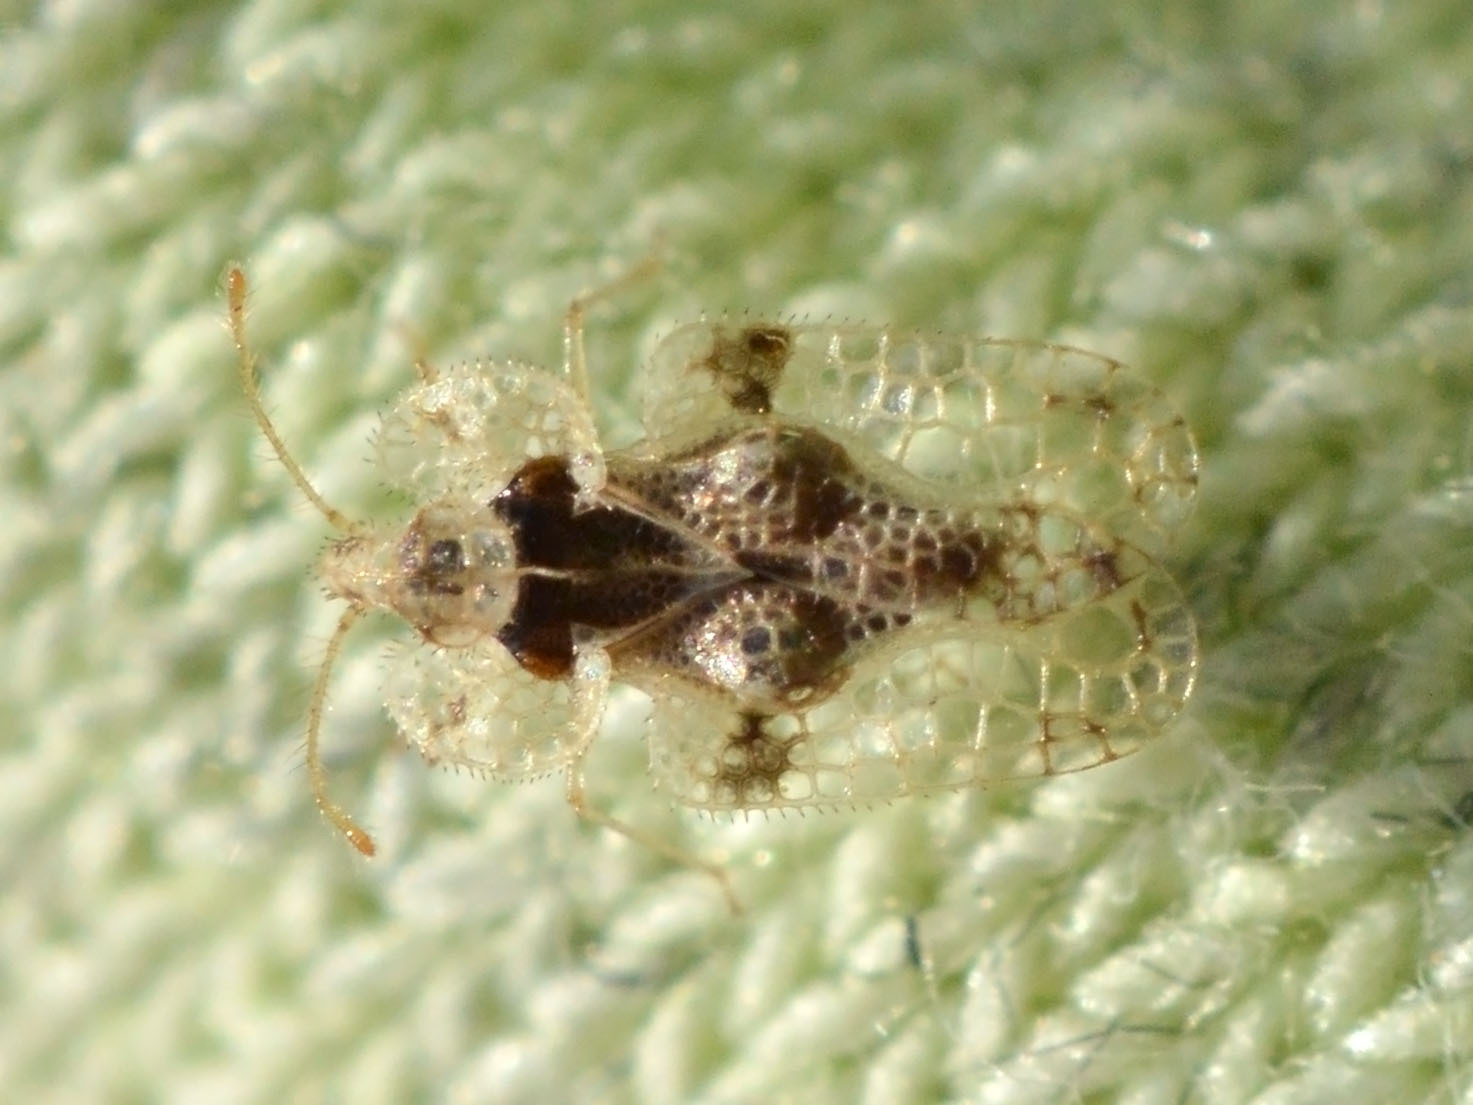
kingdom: Animalia
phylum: Arthropoda
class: Insecta
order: Hemiptera
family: Tingidae
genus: Corythucha
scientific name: Corythucha arcuata
